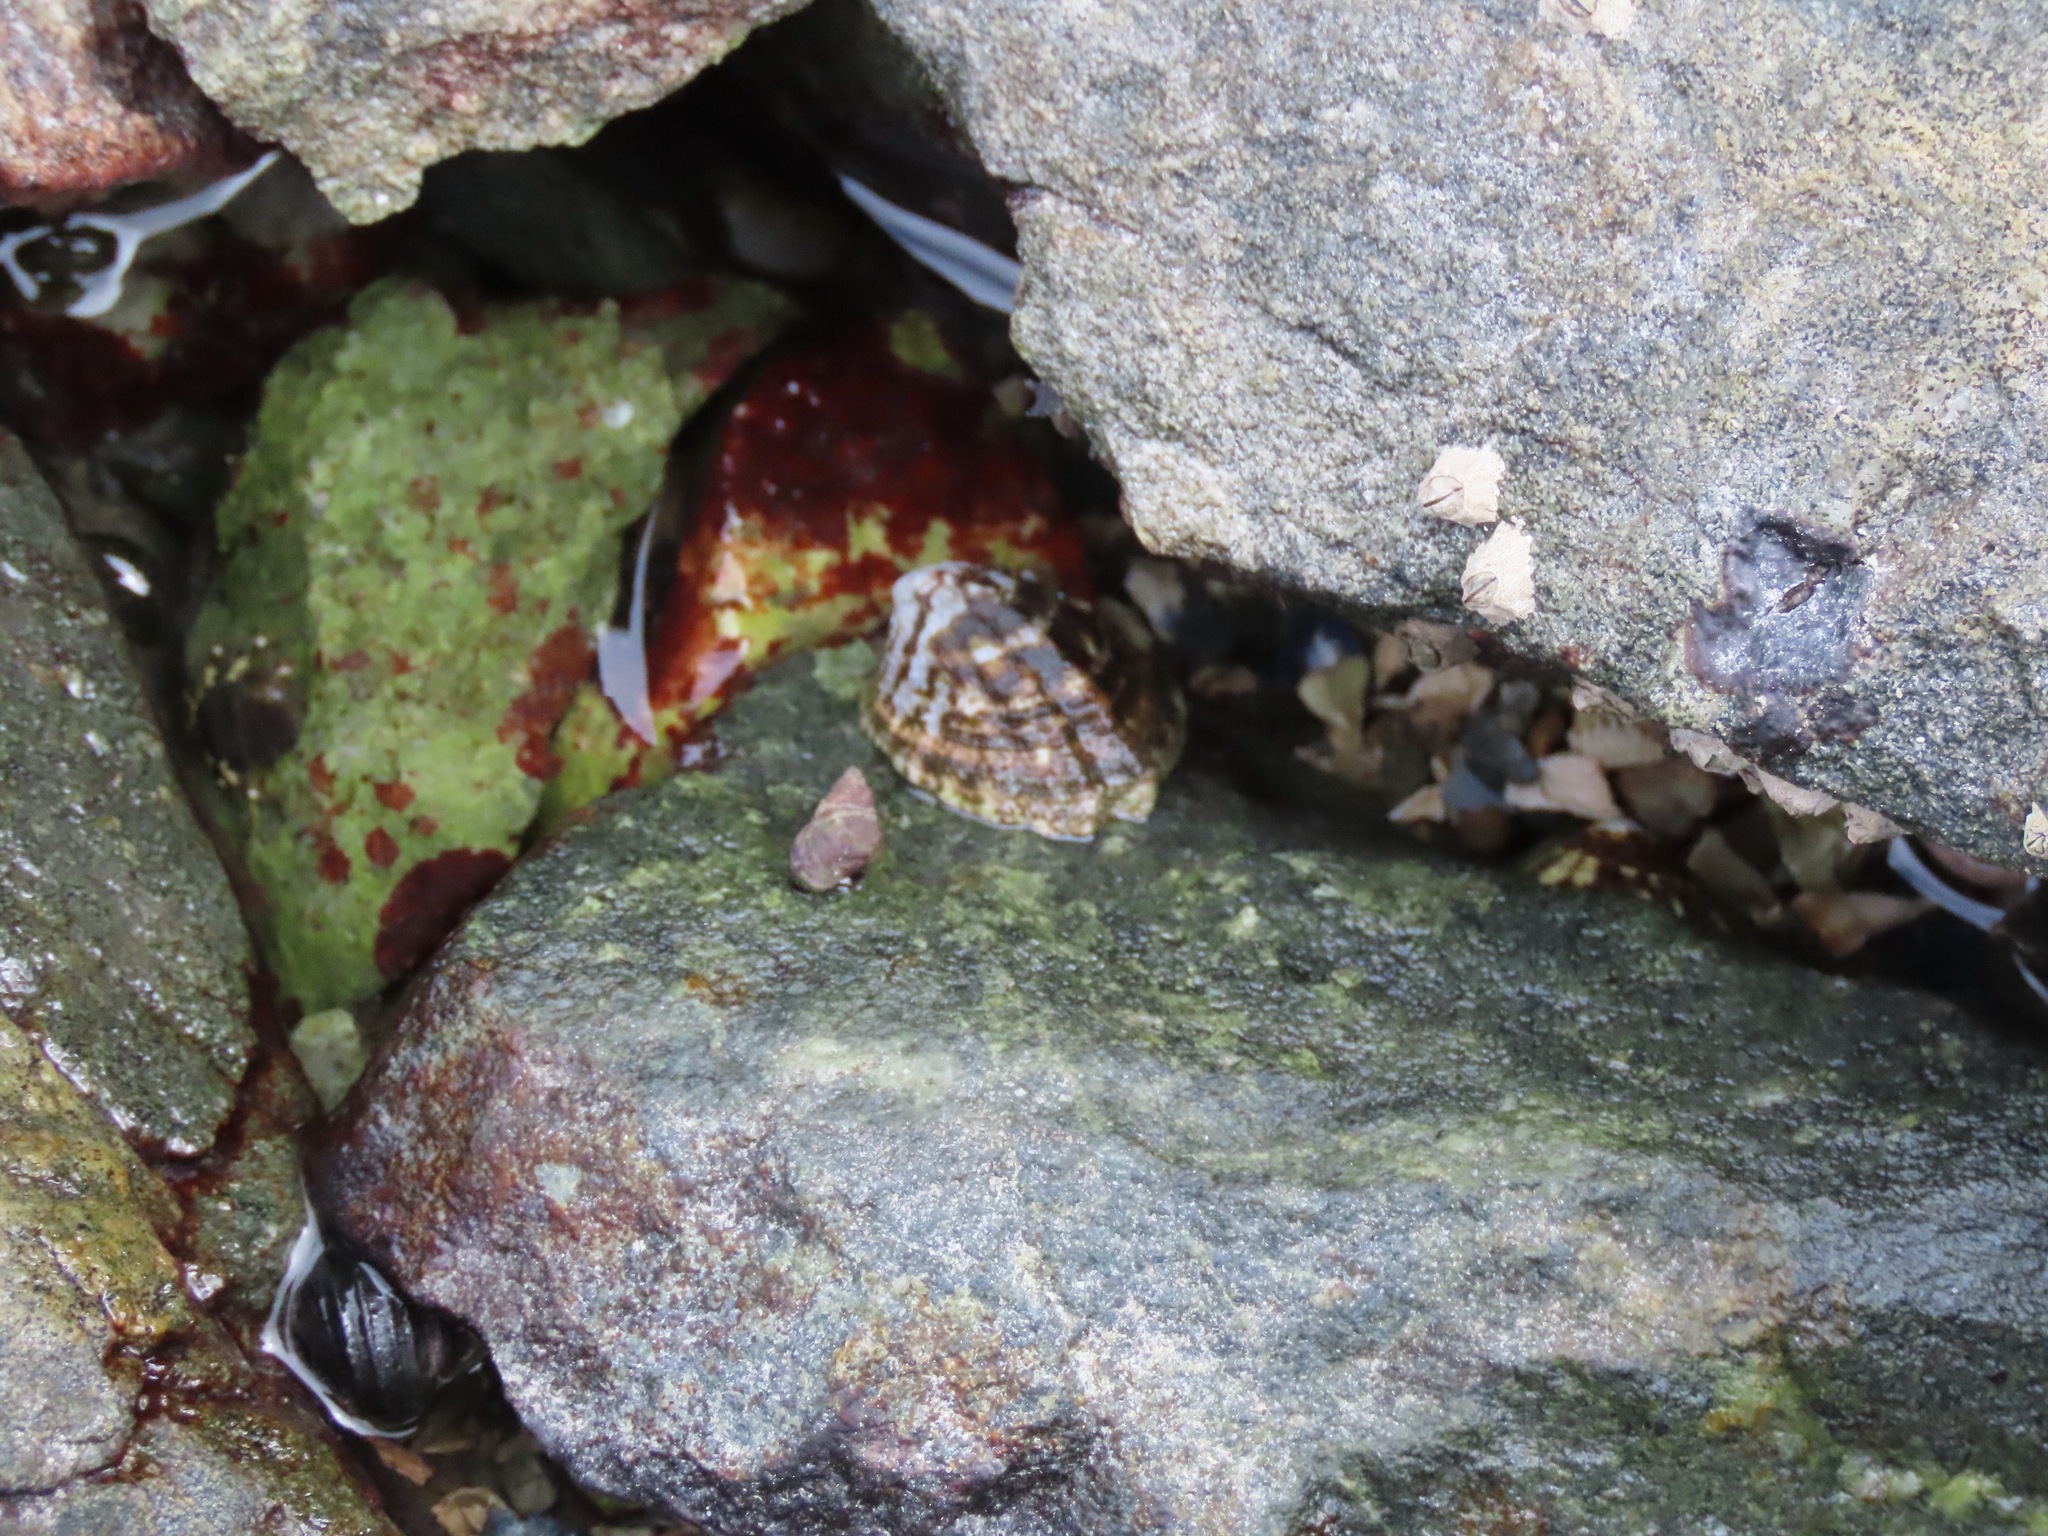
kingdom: Animalia
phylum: Mollusca
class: Gastropoda
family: Lottiidae
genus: Lottia
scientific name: Lottia digitalis
